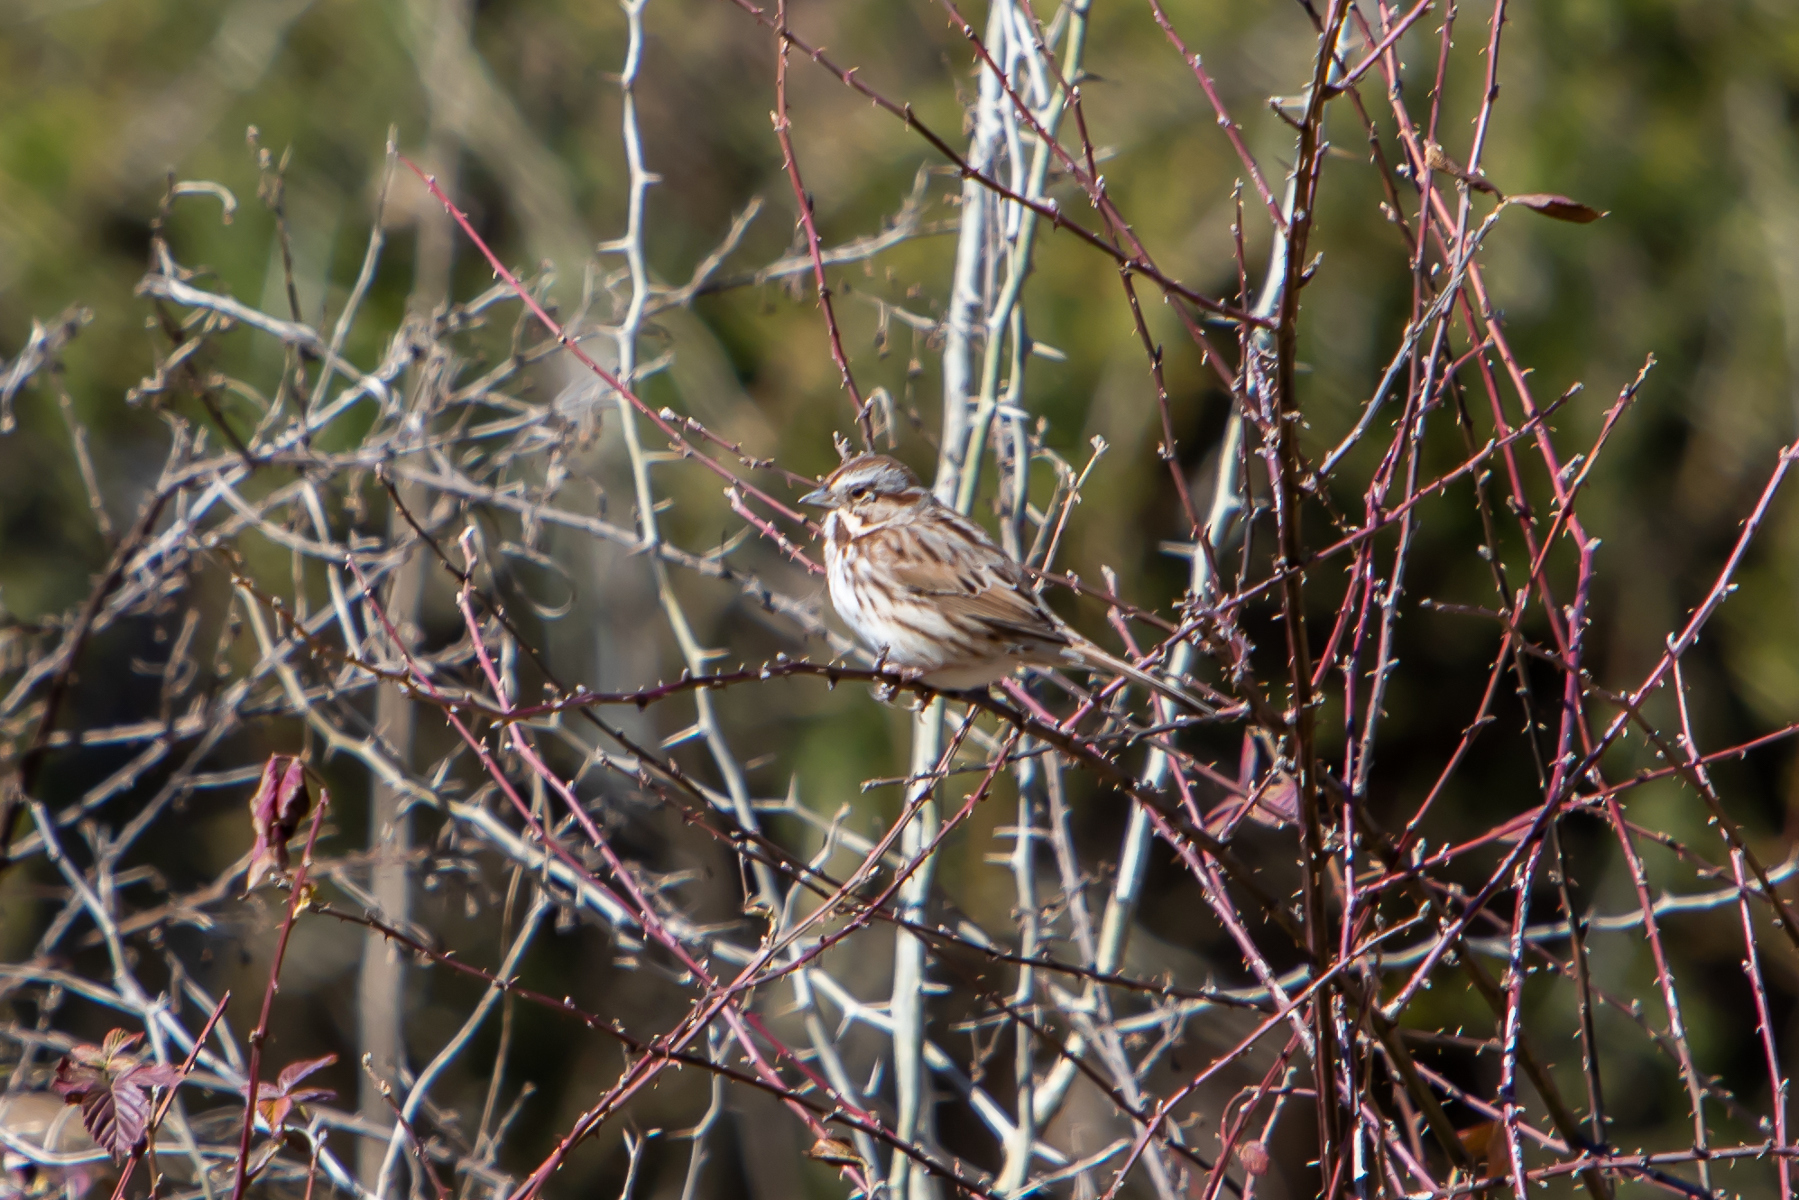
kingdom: Animalia
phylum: Chordata
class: Aves
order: Passeriformes
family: Passerellidae
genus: Melospiza
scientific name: Melospiza melodia
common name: Song sparrow
